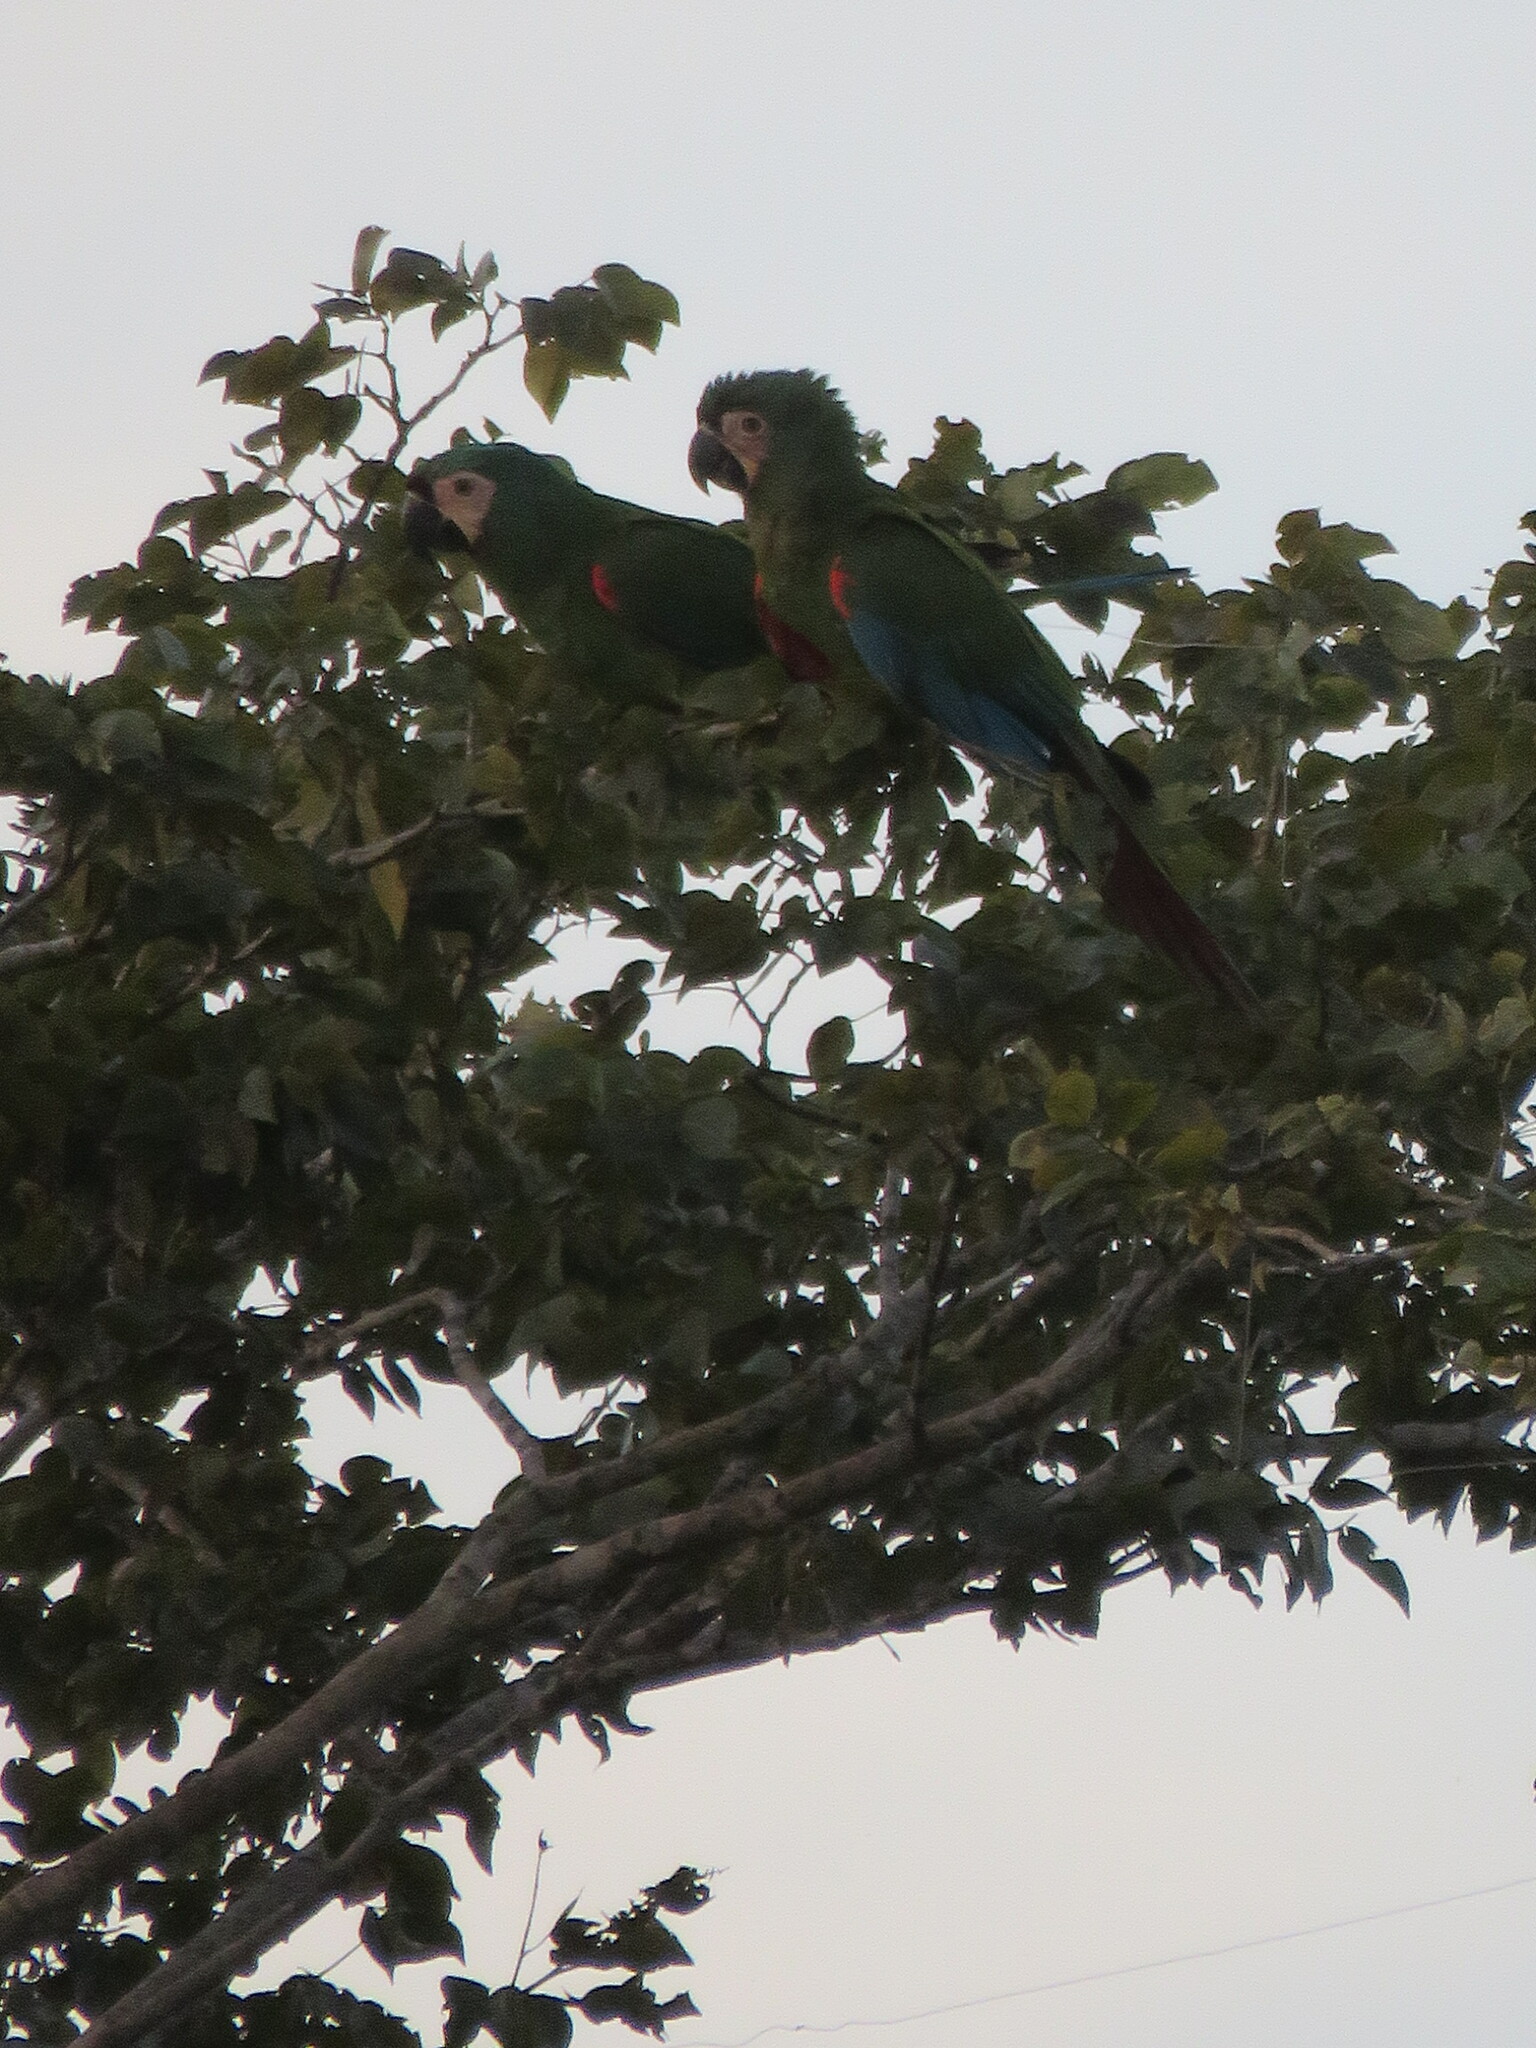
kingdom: Animalia
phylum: Chordata
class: Aves
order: Psittaciformes
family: Psittacidae
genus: Ara
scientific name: Ara severus
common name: Chestnut-fronted macaw
